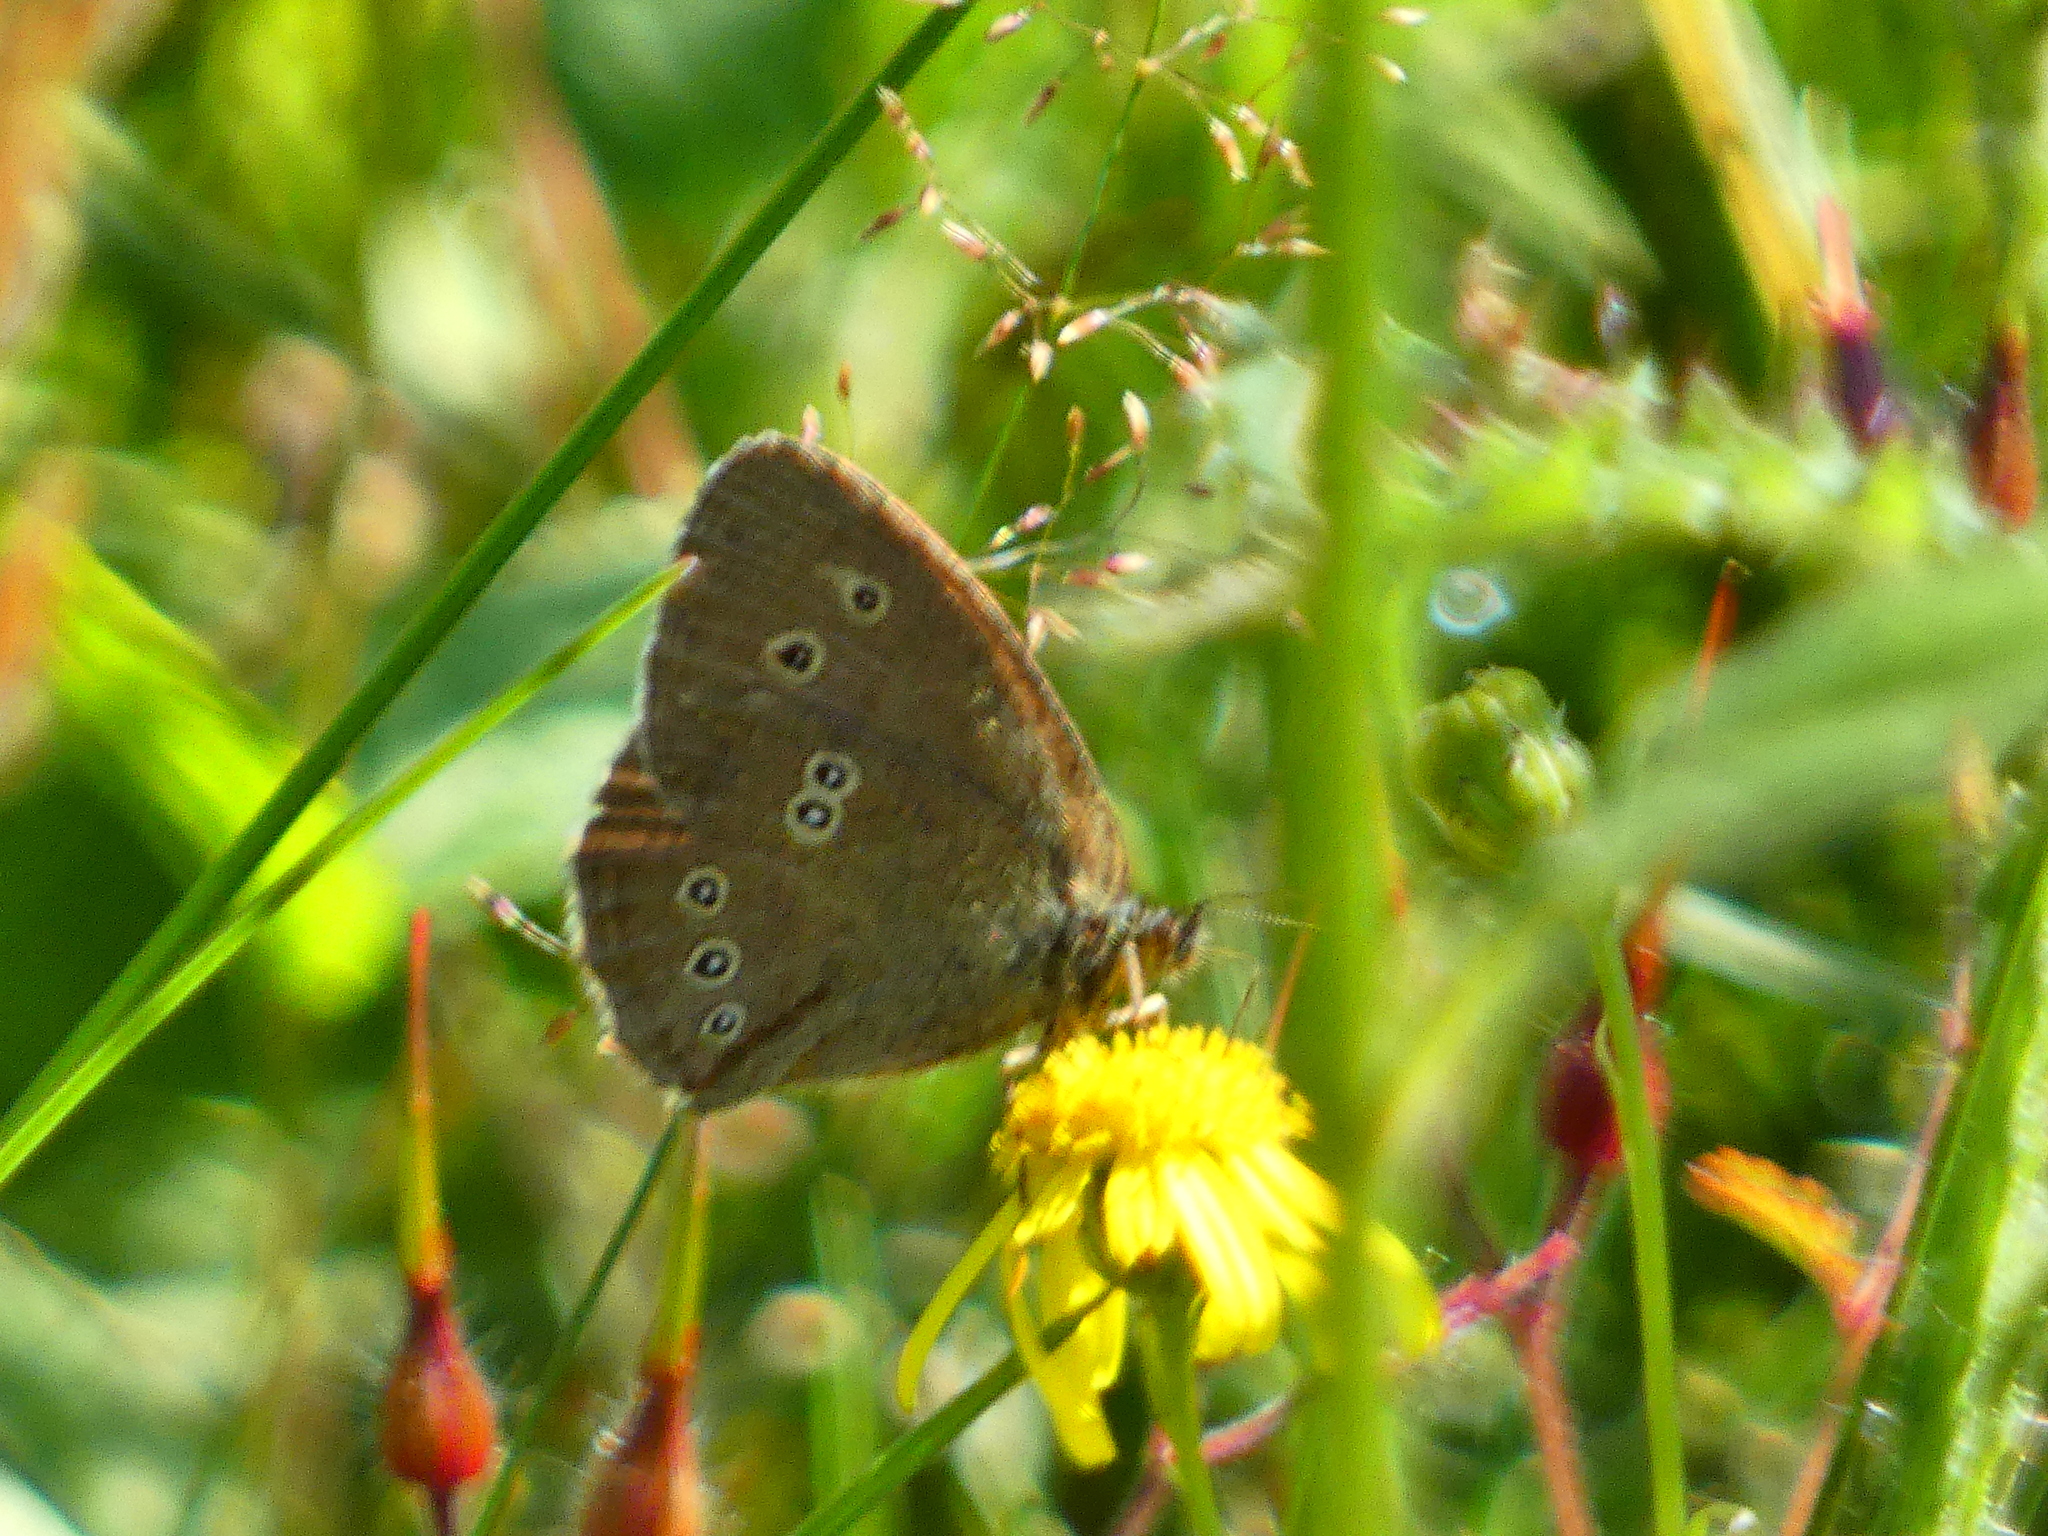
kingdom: Animalia
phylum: Arthropoda
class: Insecta
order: Lepidoptera
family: Nymphalidae
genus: Aphantopus
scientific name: Aphantopus hyperantus
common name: Ringlet
